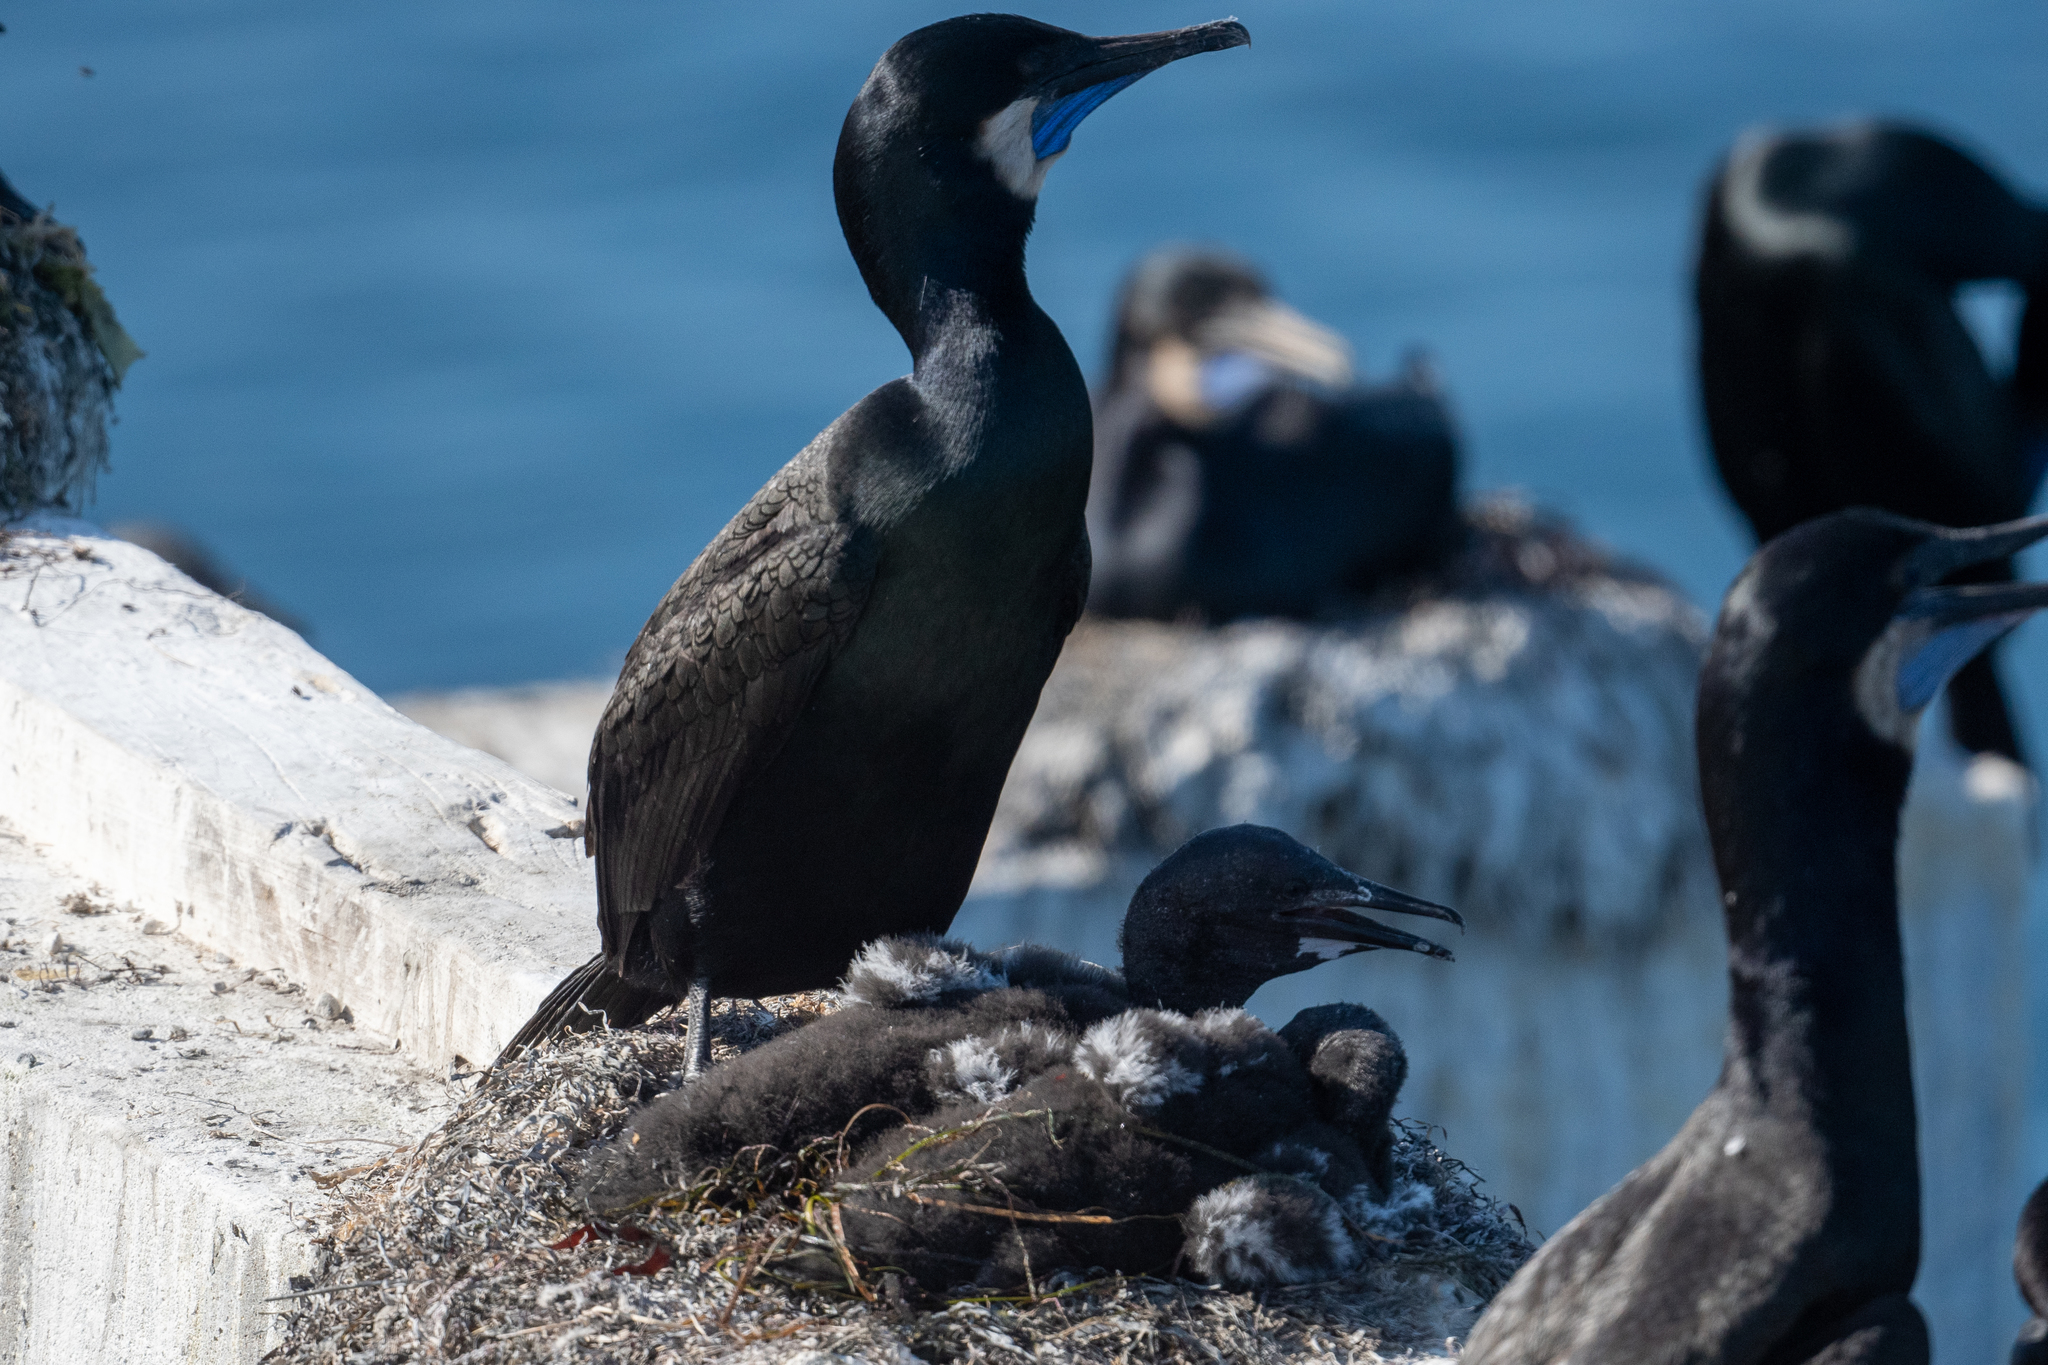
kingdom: Animalia
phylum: Chordata
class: Aves
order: Suliformes
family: Phalacrocoracidae
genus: Urile
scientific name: Urile penicillatus
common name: Brandt's cormorant
